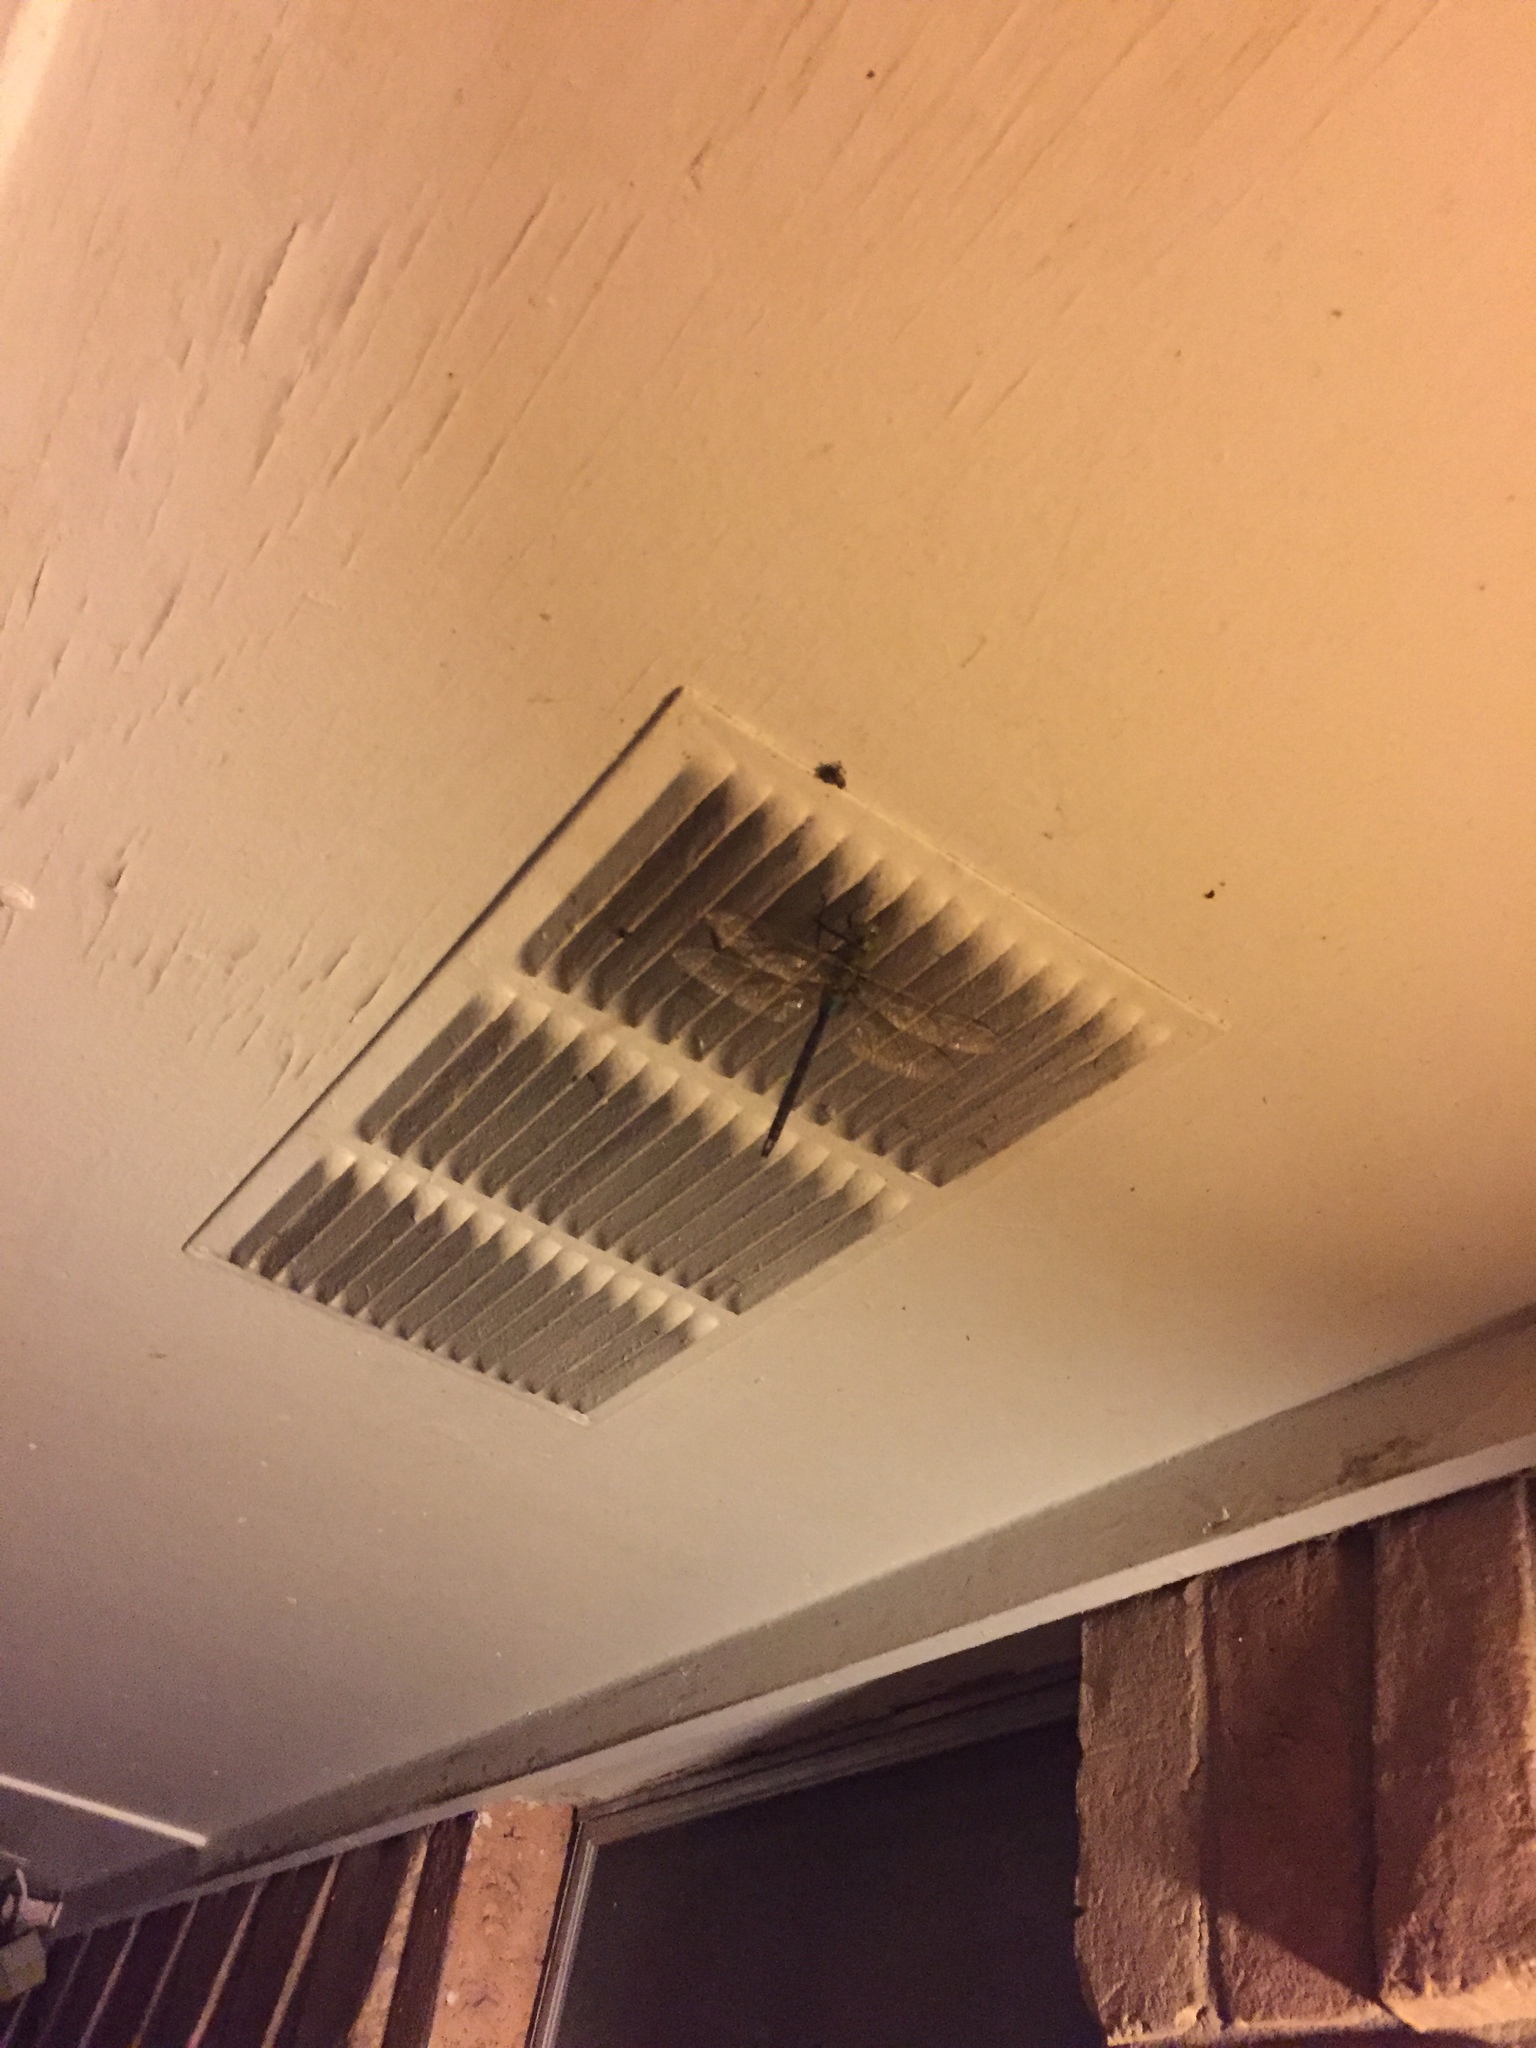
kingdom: Animalia
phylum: Arthropoda
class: Insecta
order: Odonata
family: Aeshnidae
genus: Anax
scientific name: Anax junius
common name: Common green darner
